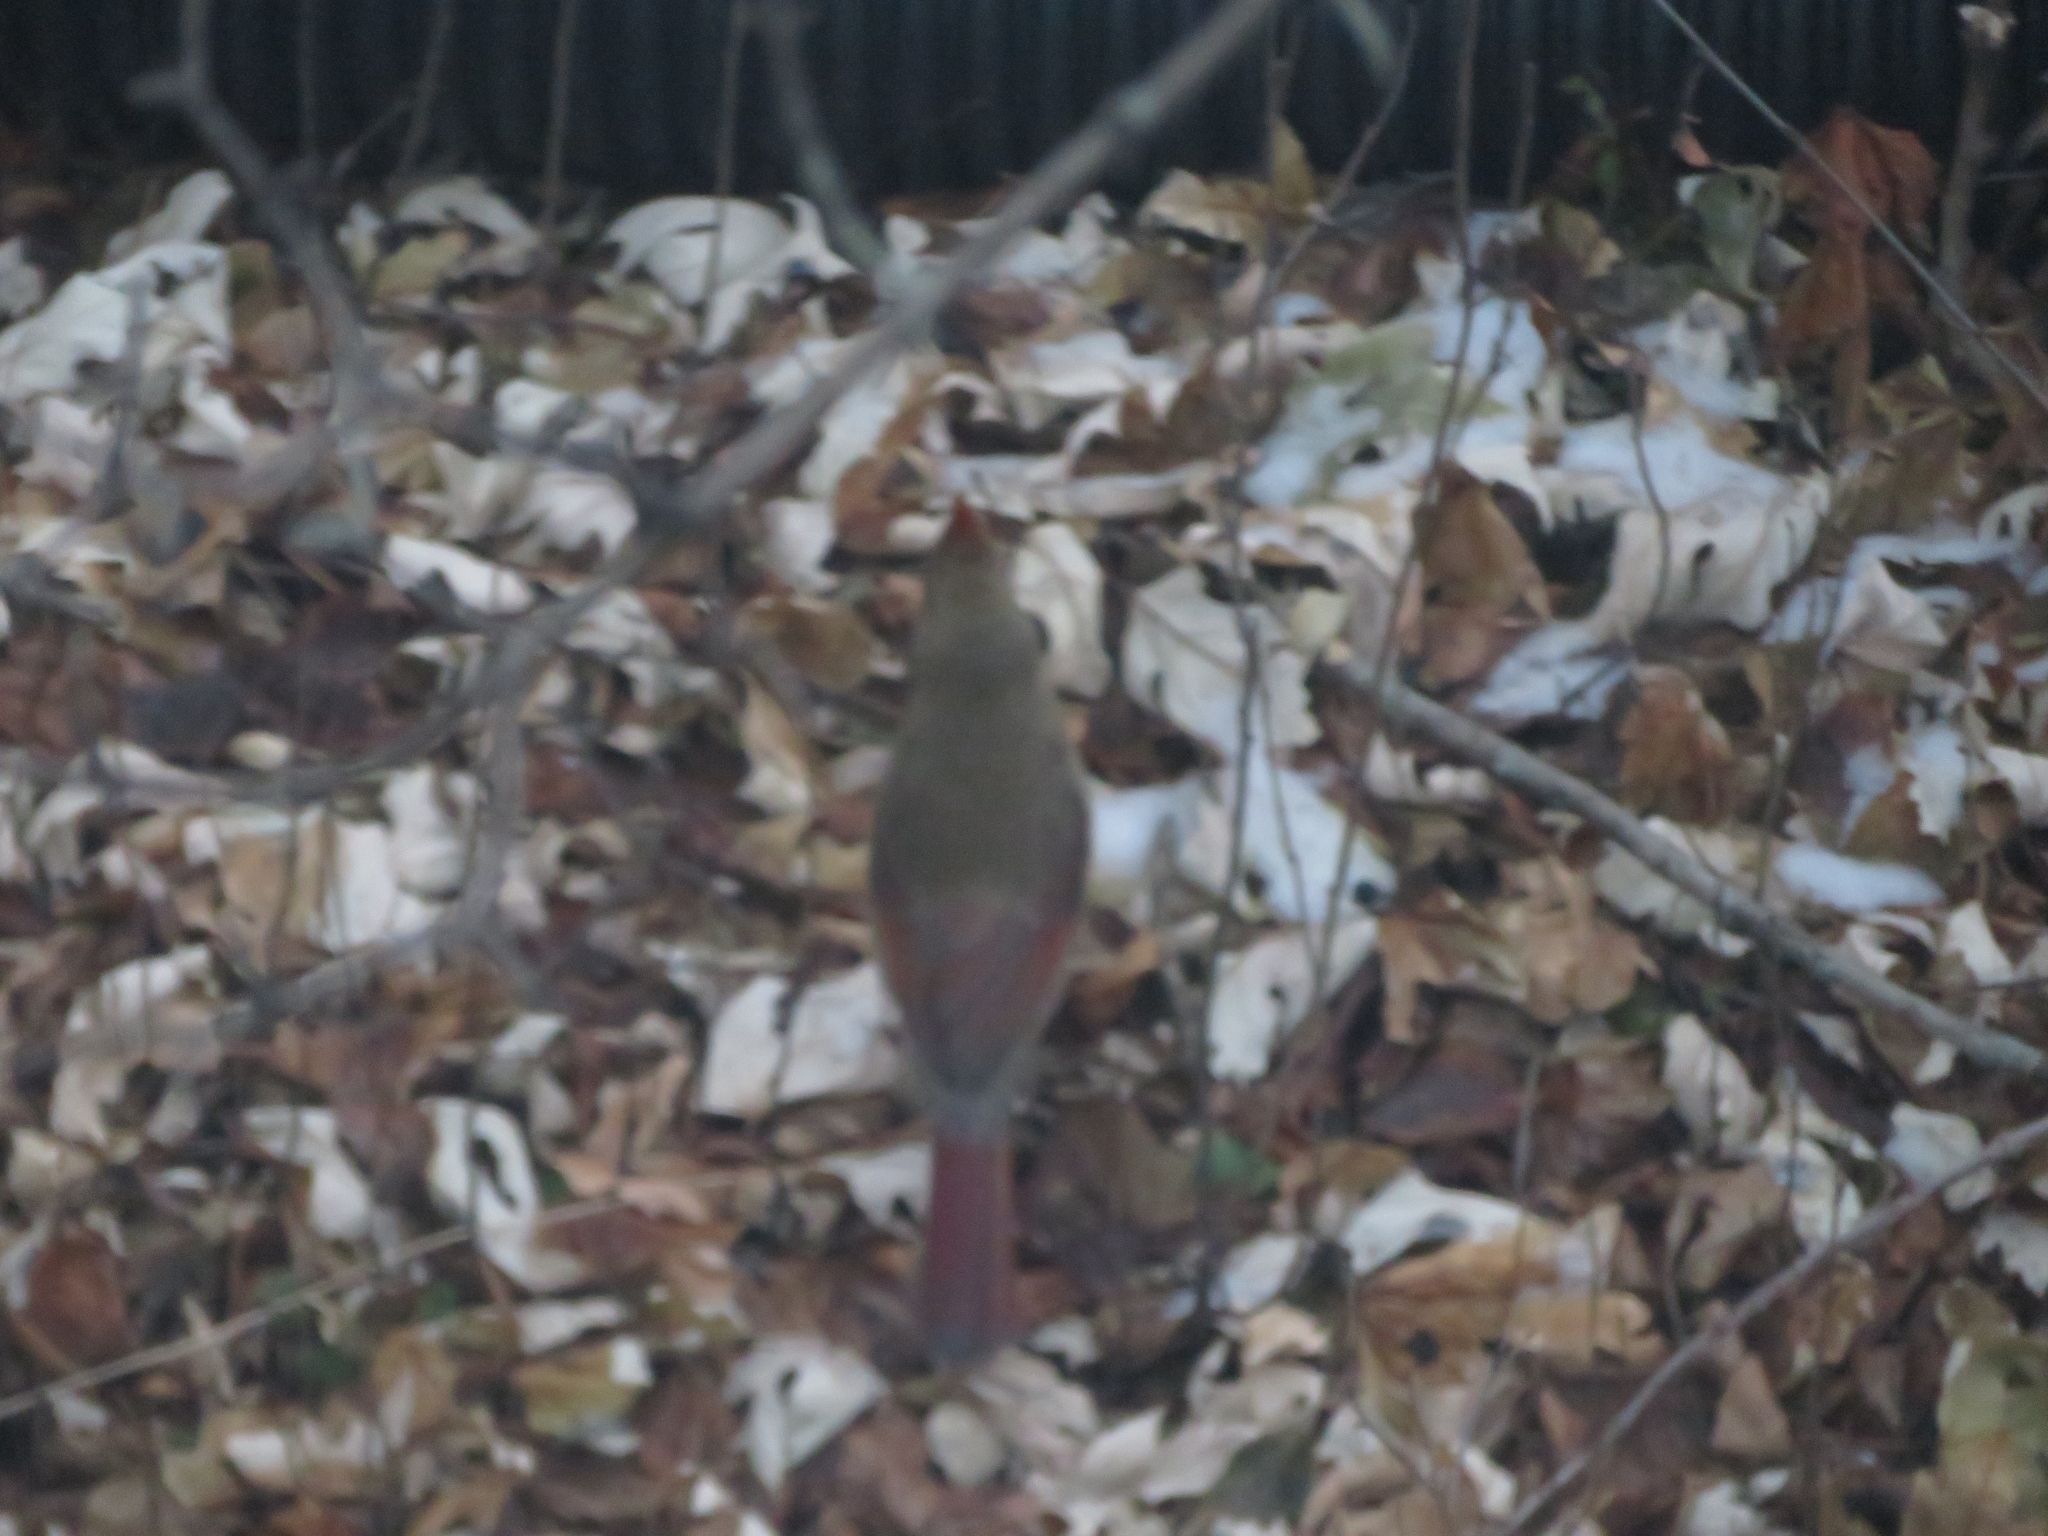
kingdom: Animalia
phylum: Chordata
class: Aves
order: Passeriformes
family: Cardinalidae
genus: Cardinalis
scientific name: Cardinalis cardinalis
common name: Northern cardinal
